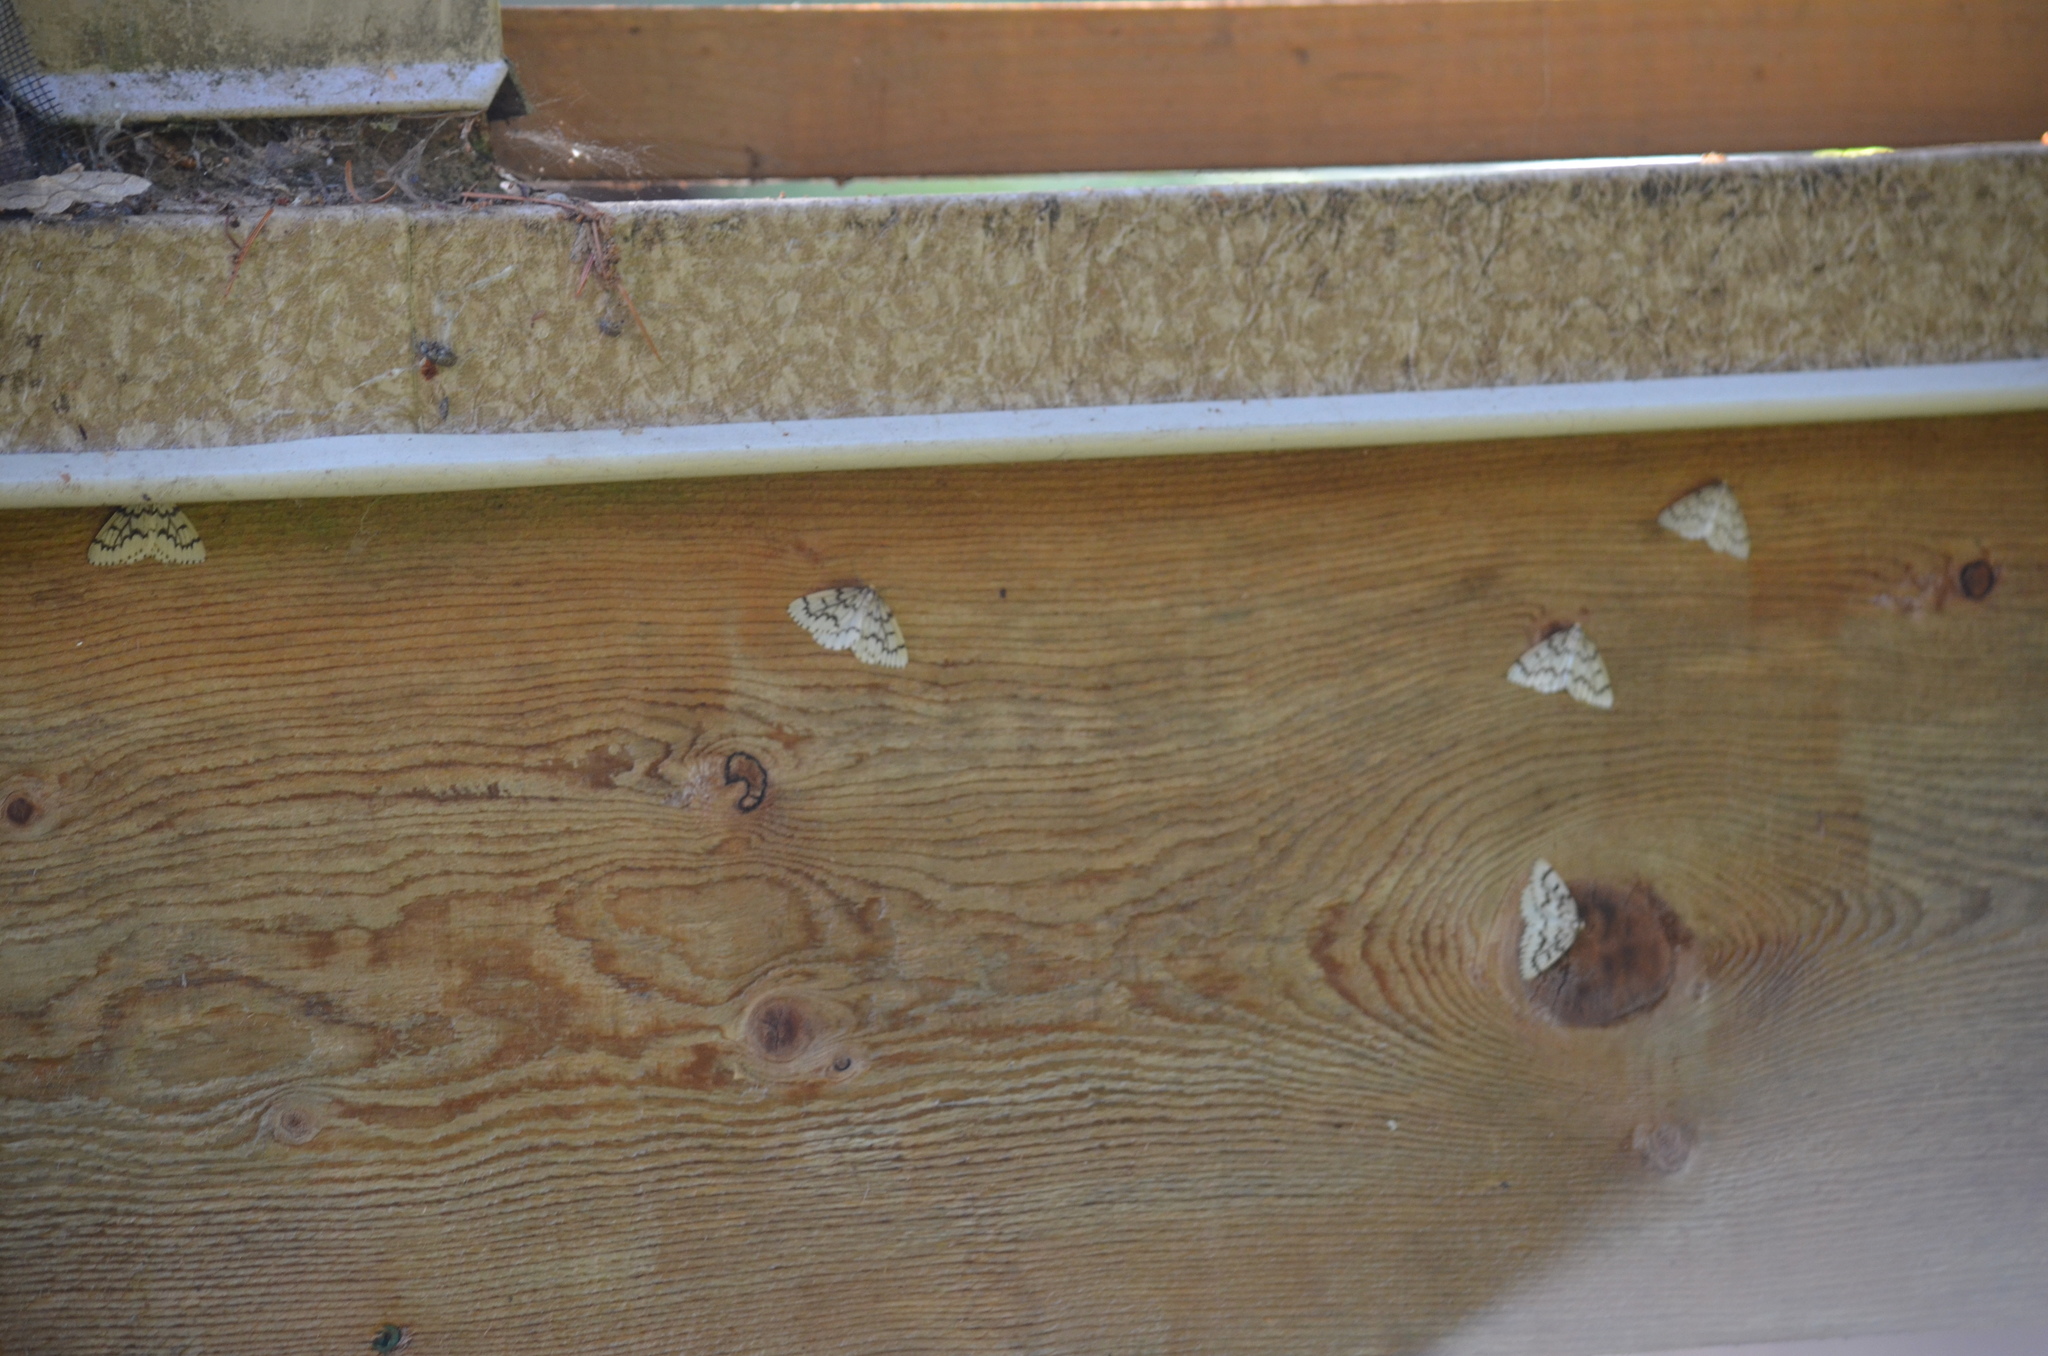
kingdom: Animalia
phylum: Arthropoda
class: Insecta
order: Lepidoptera
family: Geometridae
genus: Nepytia
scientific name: Nepytia phantasmaria
